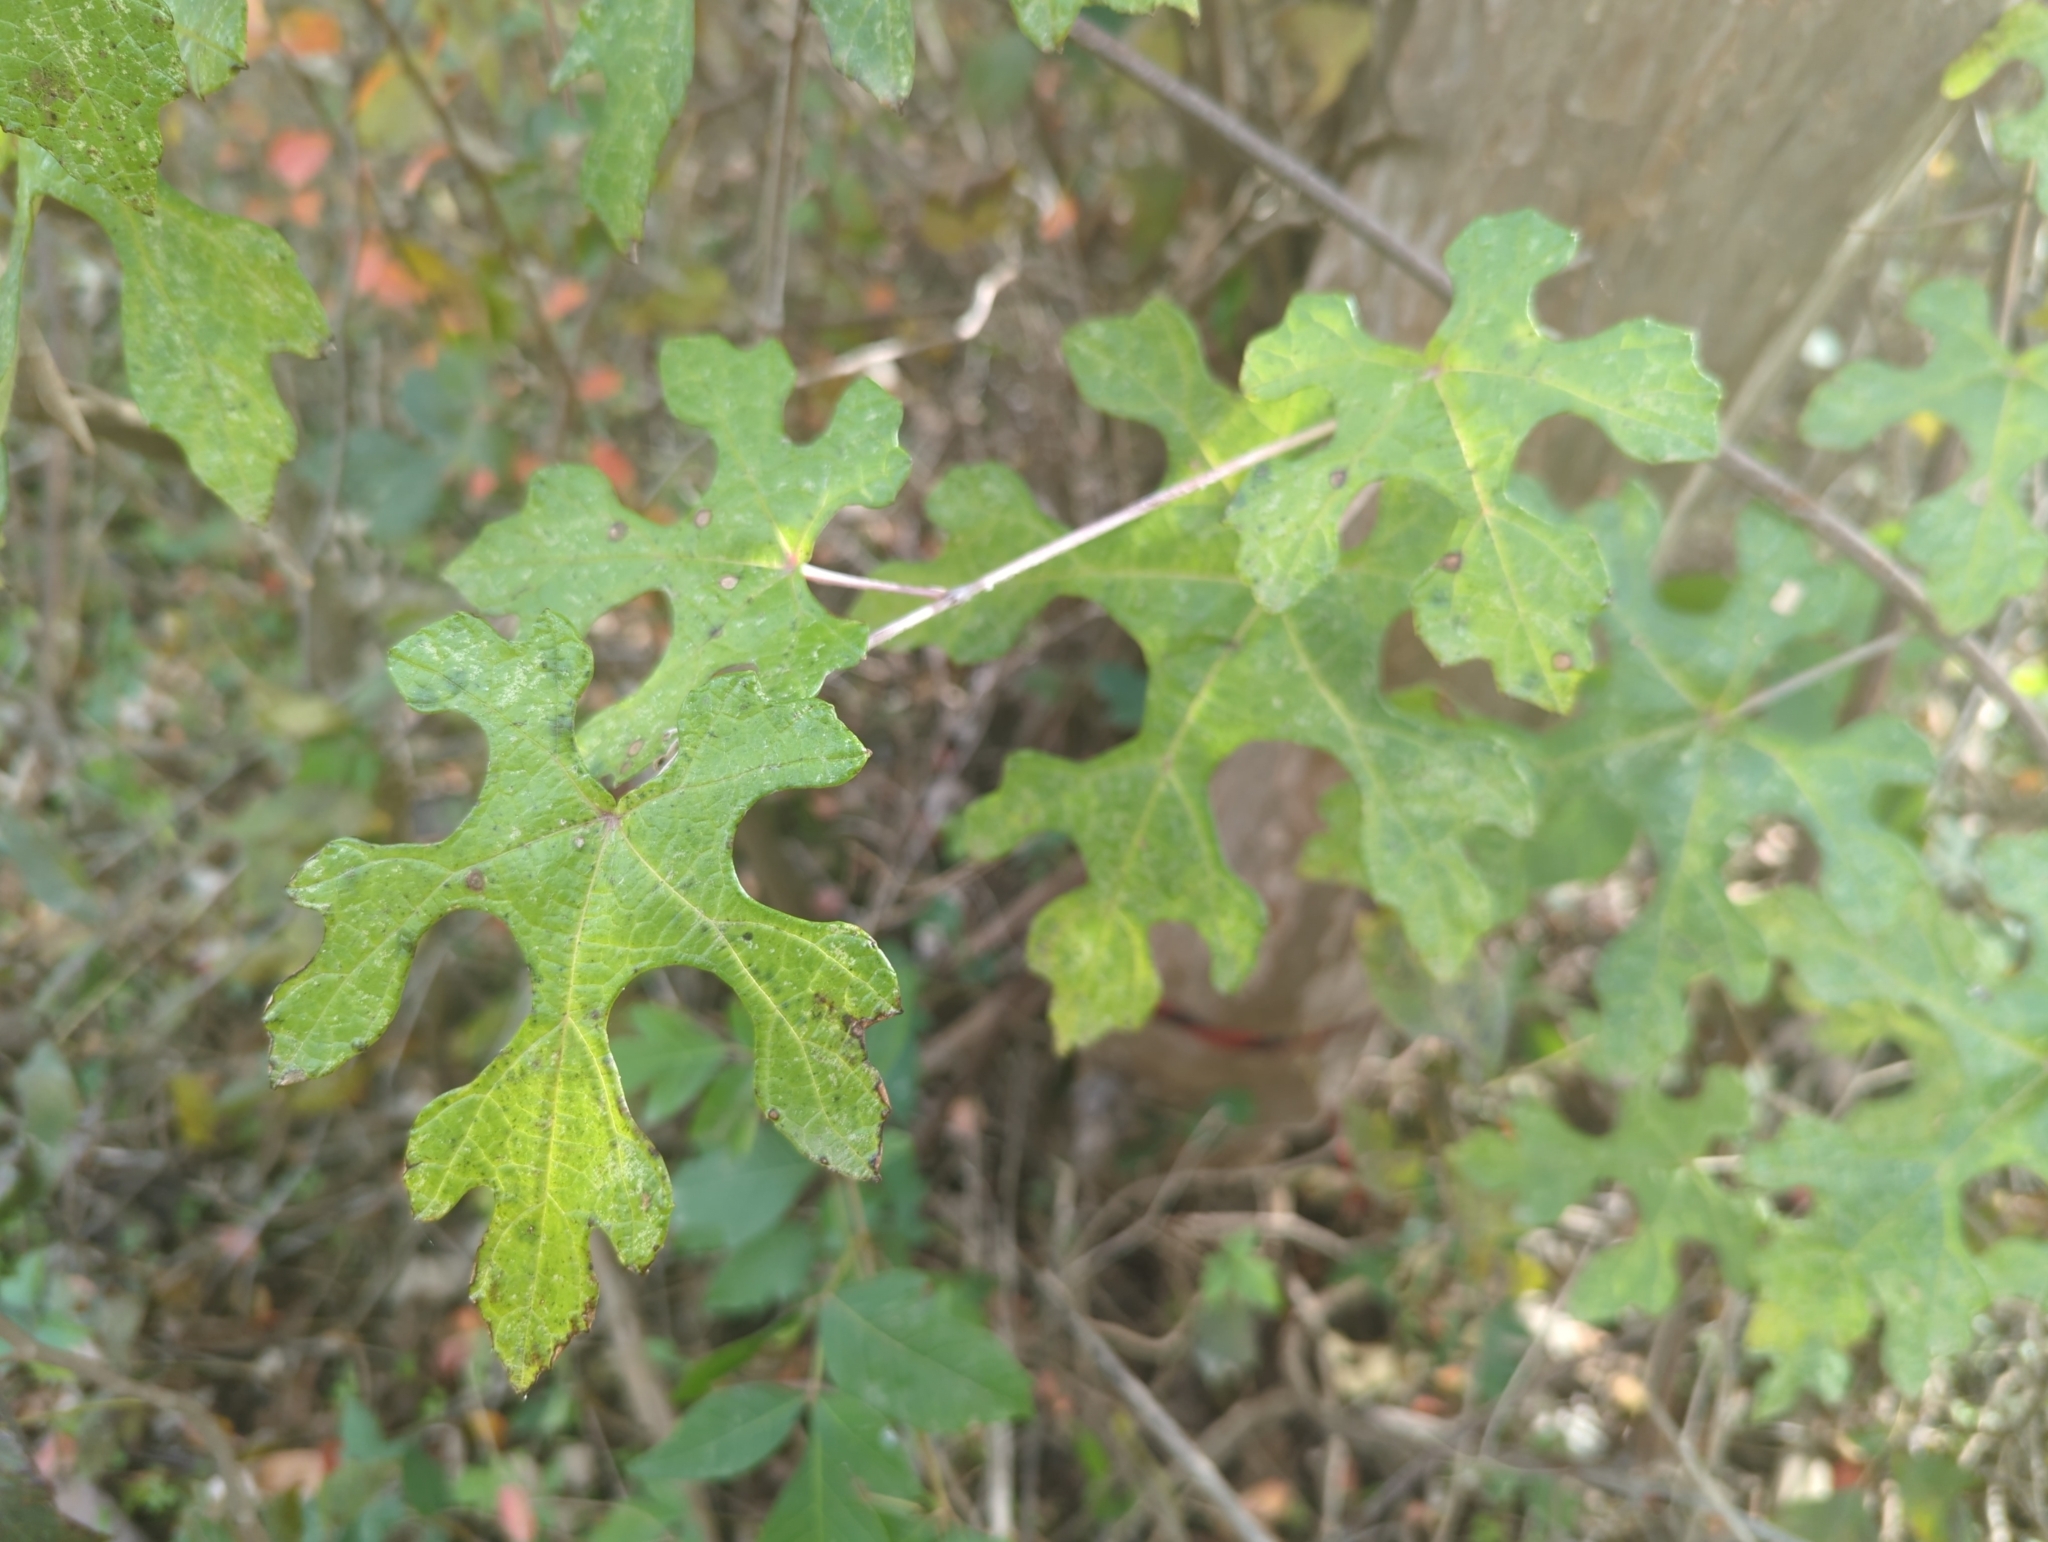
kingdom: Plantae
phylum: Tracheophyta
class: Magnoliopsida
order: Vitales
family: Vitaceae
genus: Vitis
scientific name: Vitis mustangensis
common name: Mustang grape
